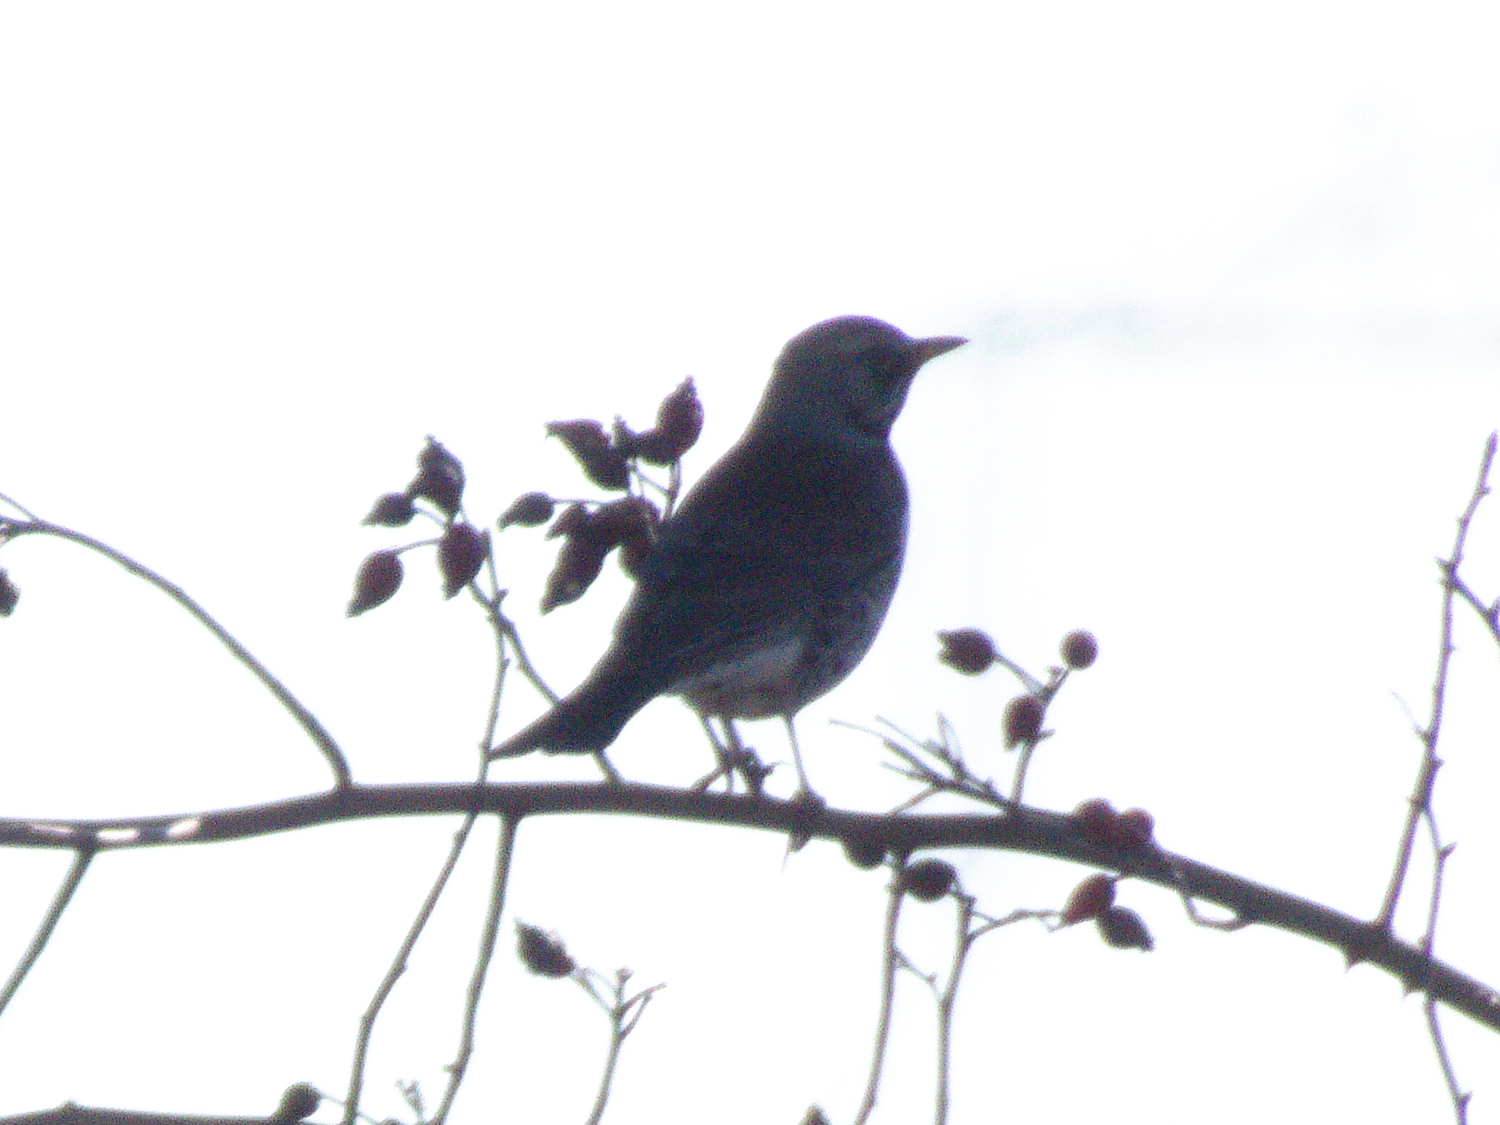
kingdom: Animalia
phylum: Chordata
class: Aves
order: Passeriformes
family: Turdidae
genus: Turdus
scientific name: Turdus pilaris
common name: Fieldfare
